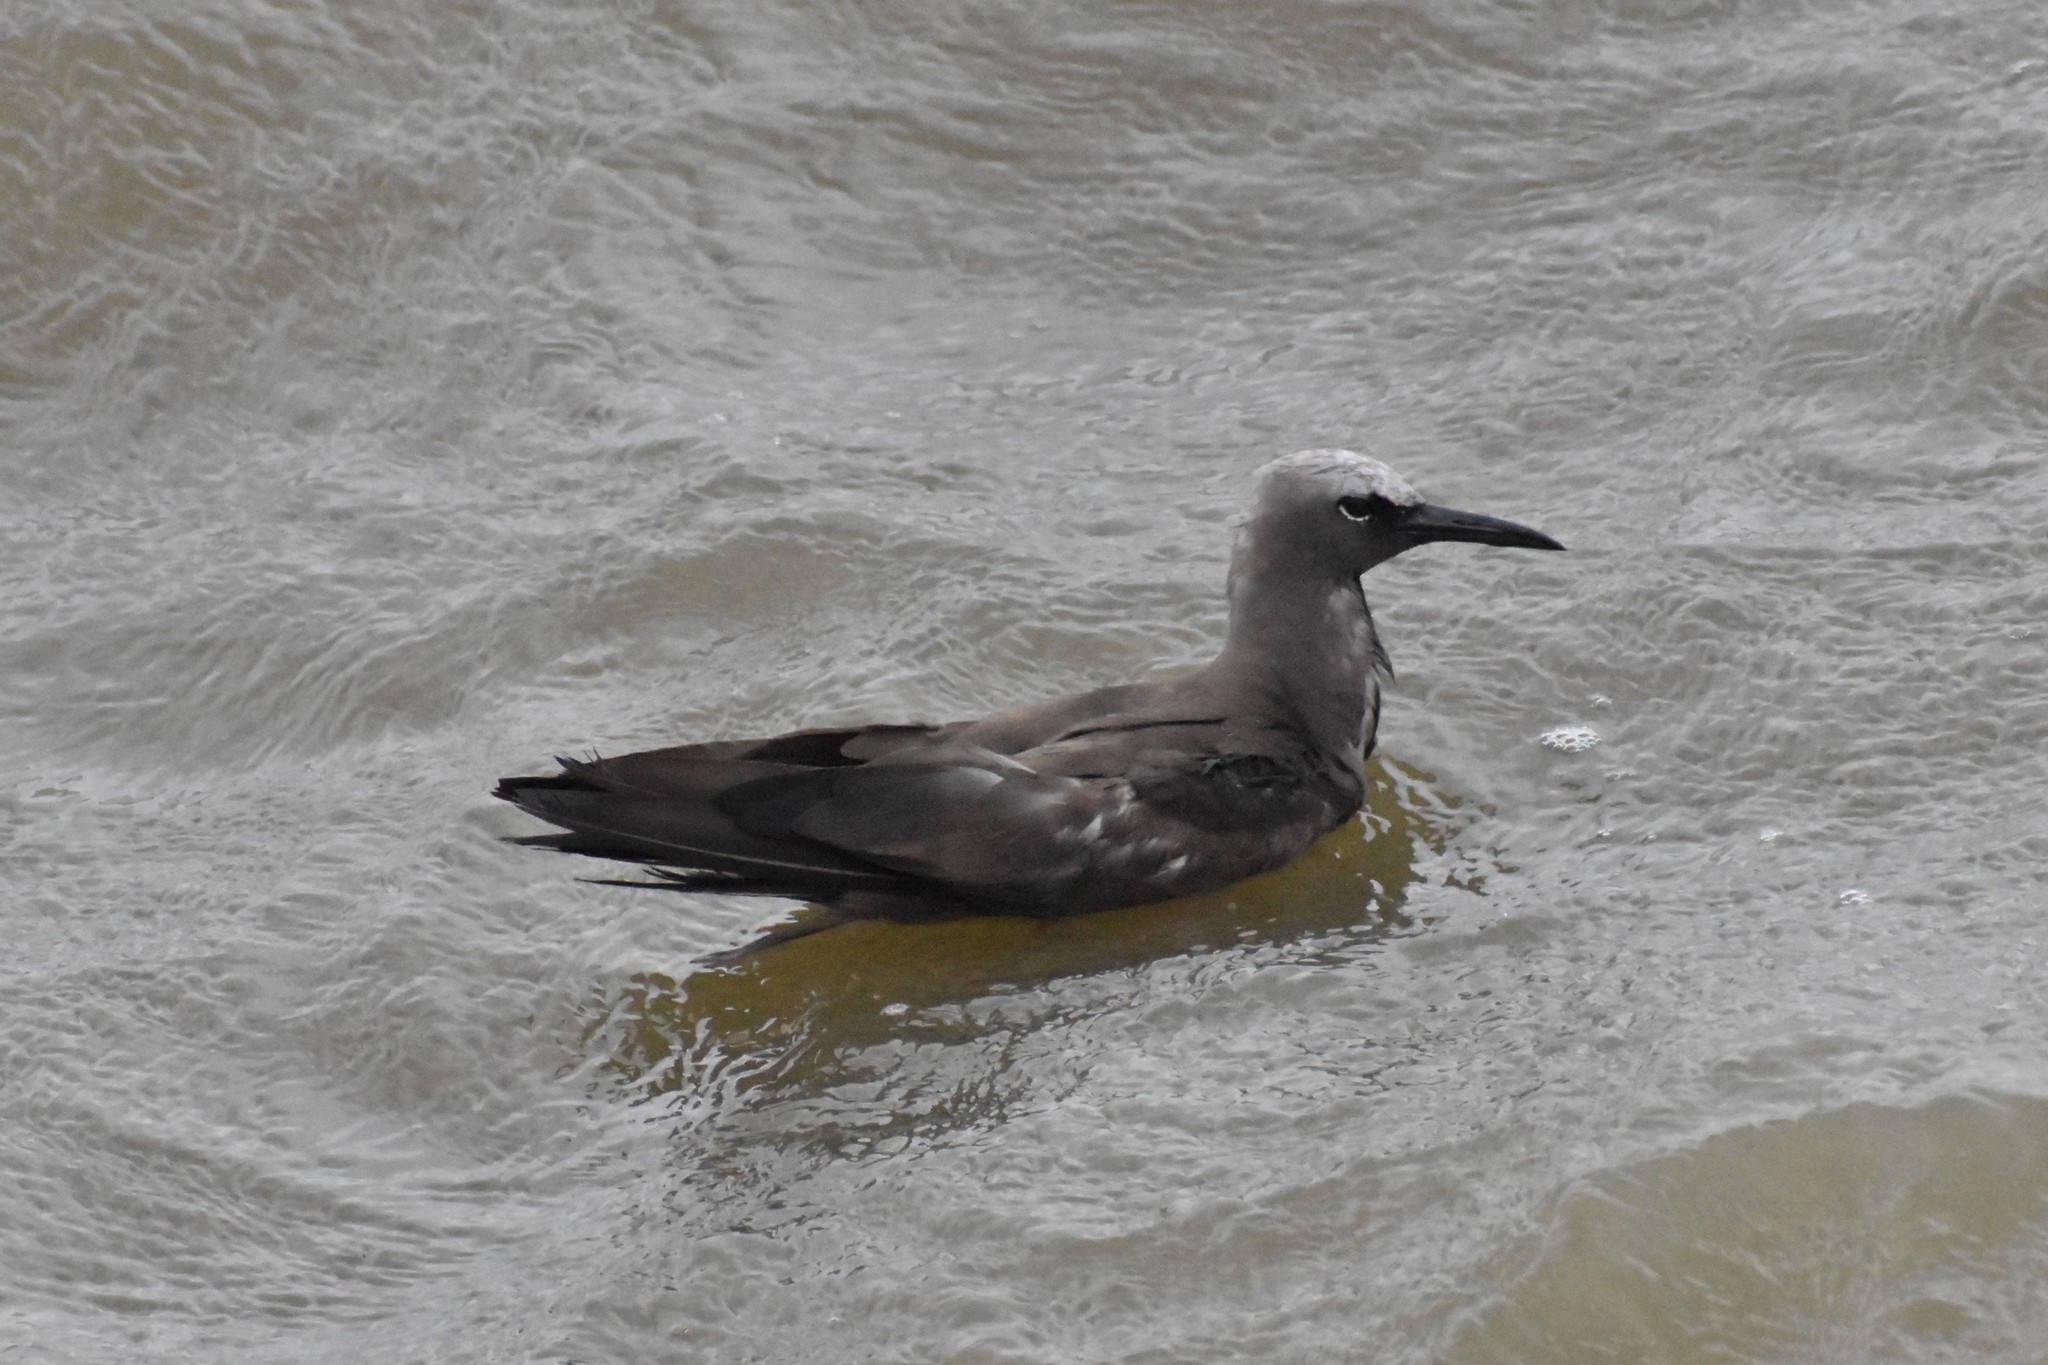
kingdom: Animalia
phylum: Chordata
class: Aves
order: Charadriiformes
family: Laridae
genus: Anous
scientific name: Anous stolidus
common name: Brown noddy
